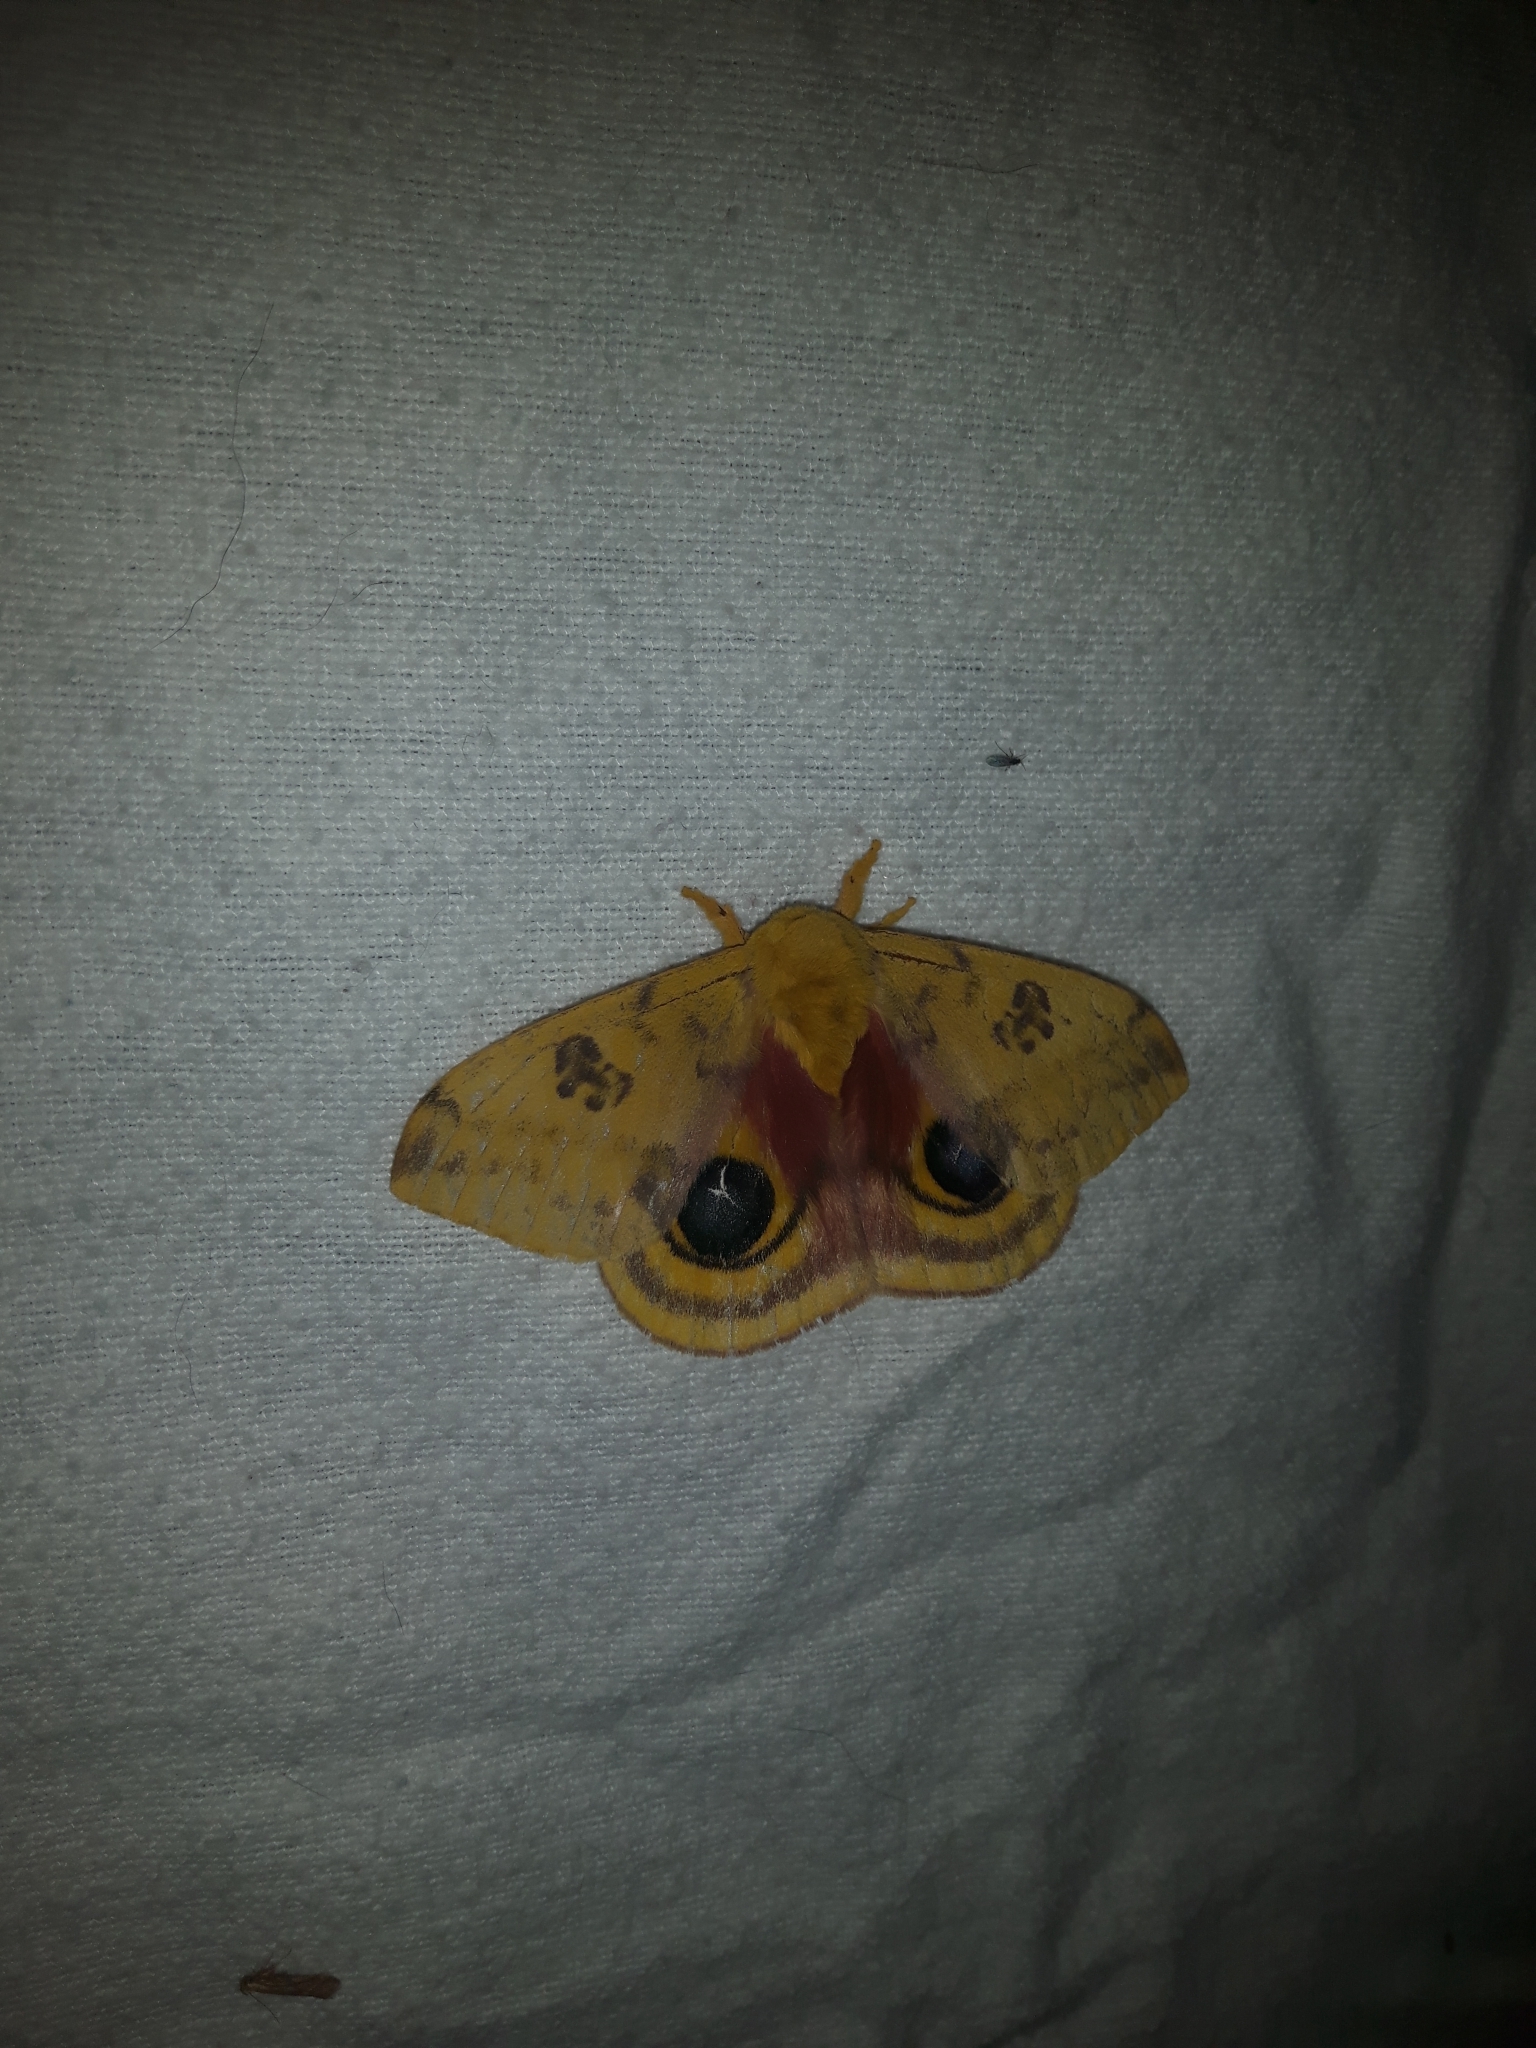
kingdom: Animalia
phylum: Arthropoda
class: Insecta
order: Lepidoptera
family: Saturniidae
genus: Automeris
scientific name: Automeris io
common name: Io moth
